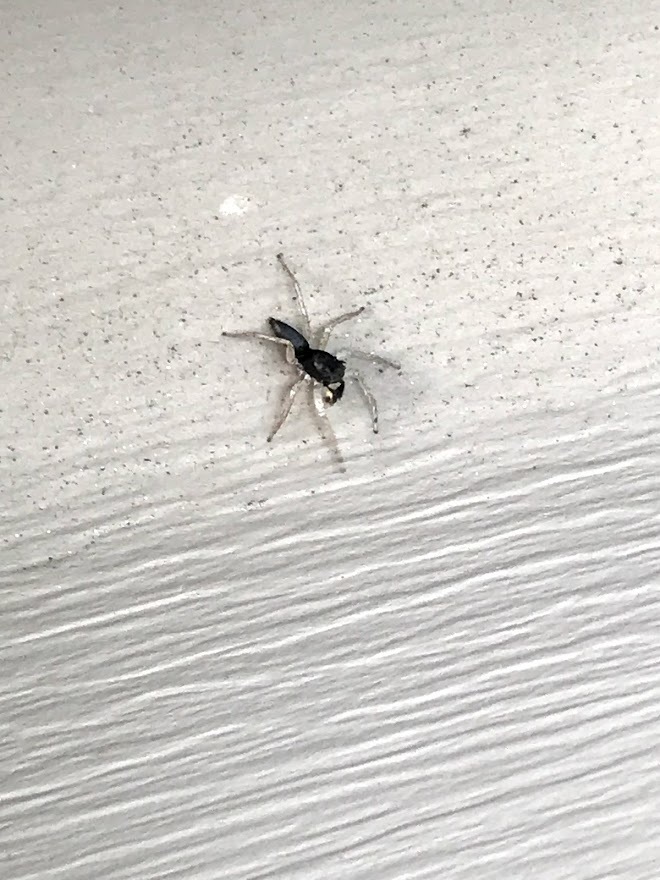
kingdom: Animalia
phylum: Arthropoda
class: Arachnida
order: Araneae
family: Salticidae
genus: Maevia
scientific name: Maevia inclemens
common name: Dimorphic jumper
